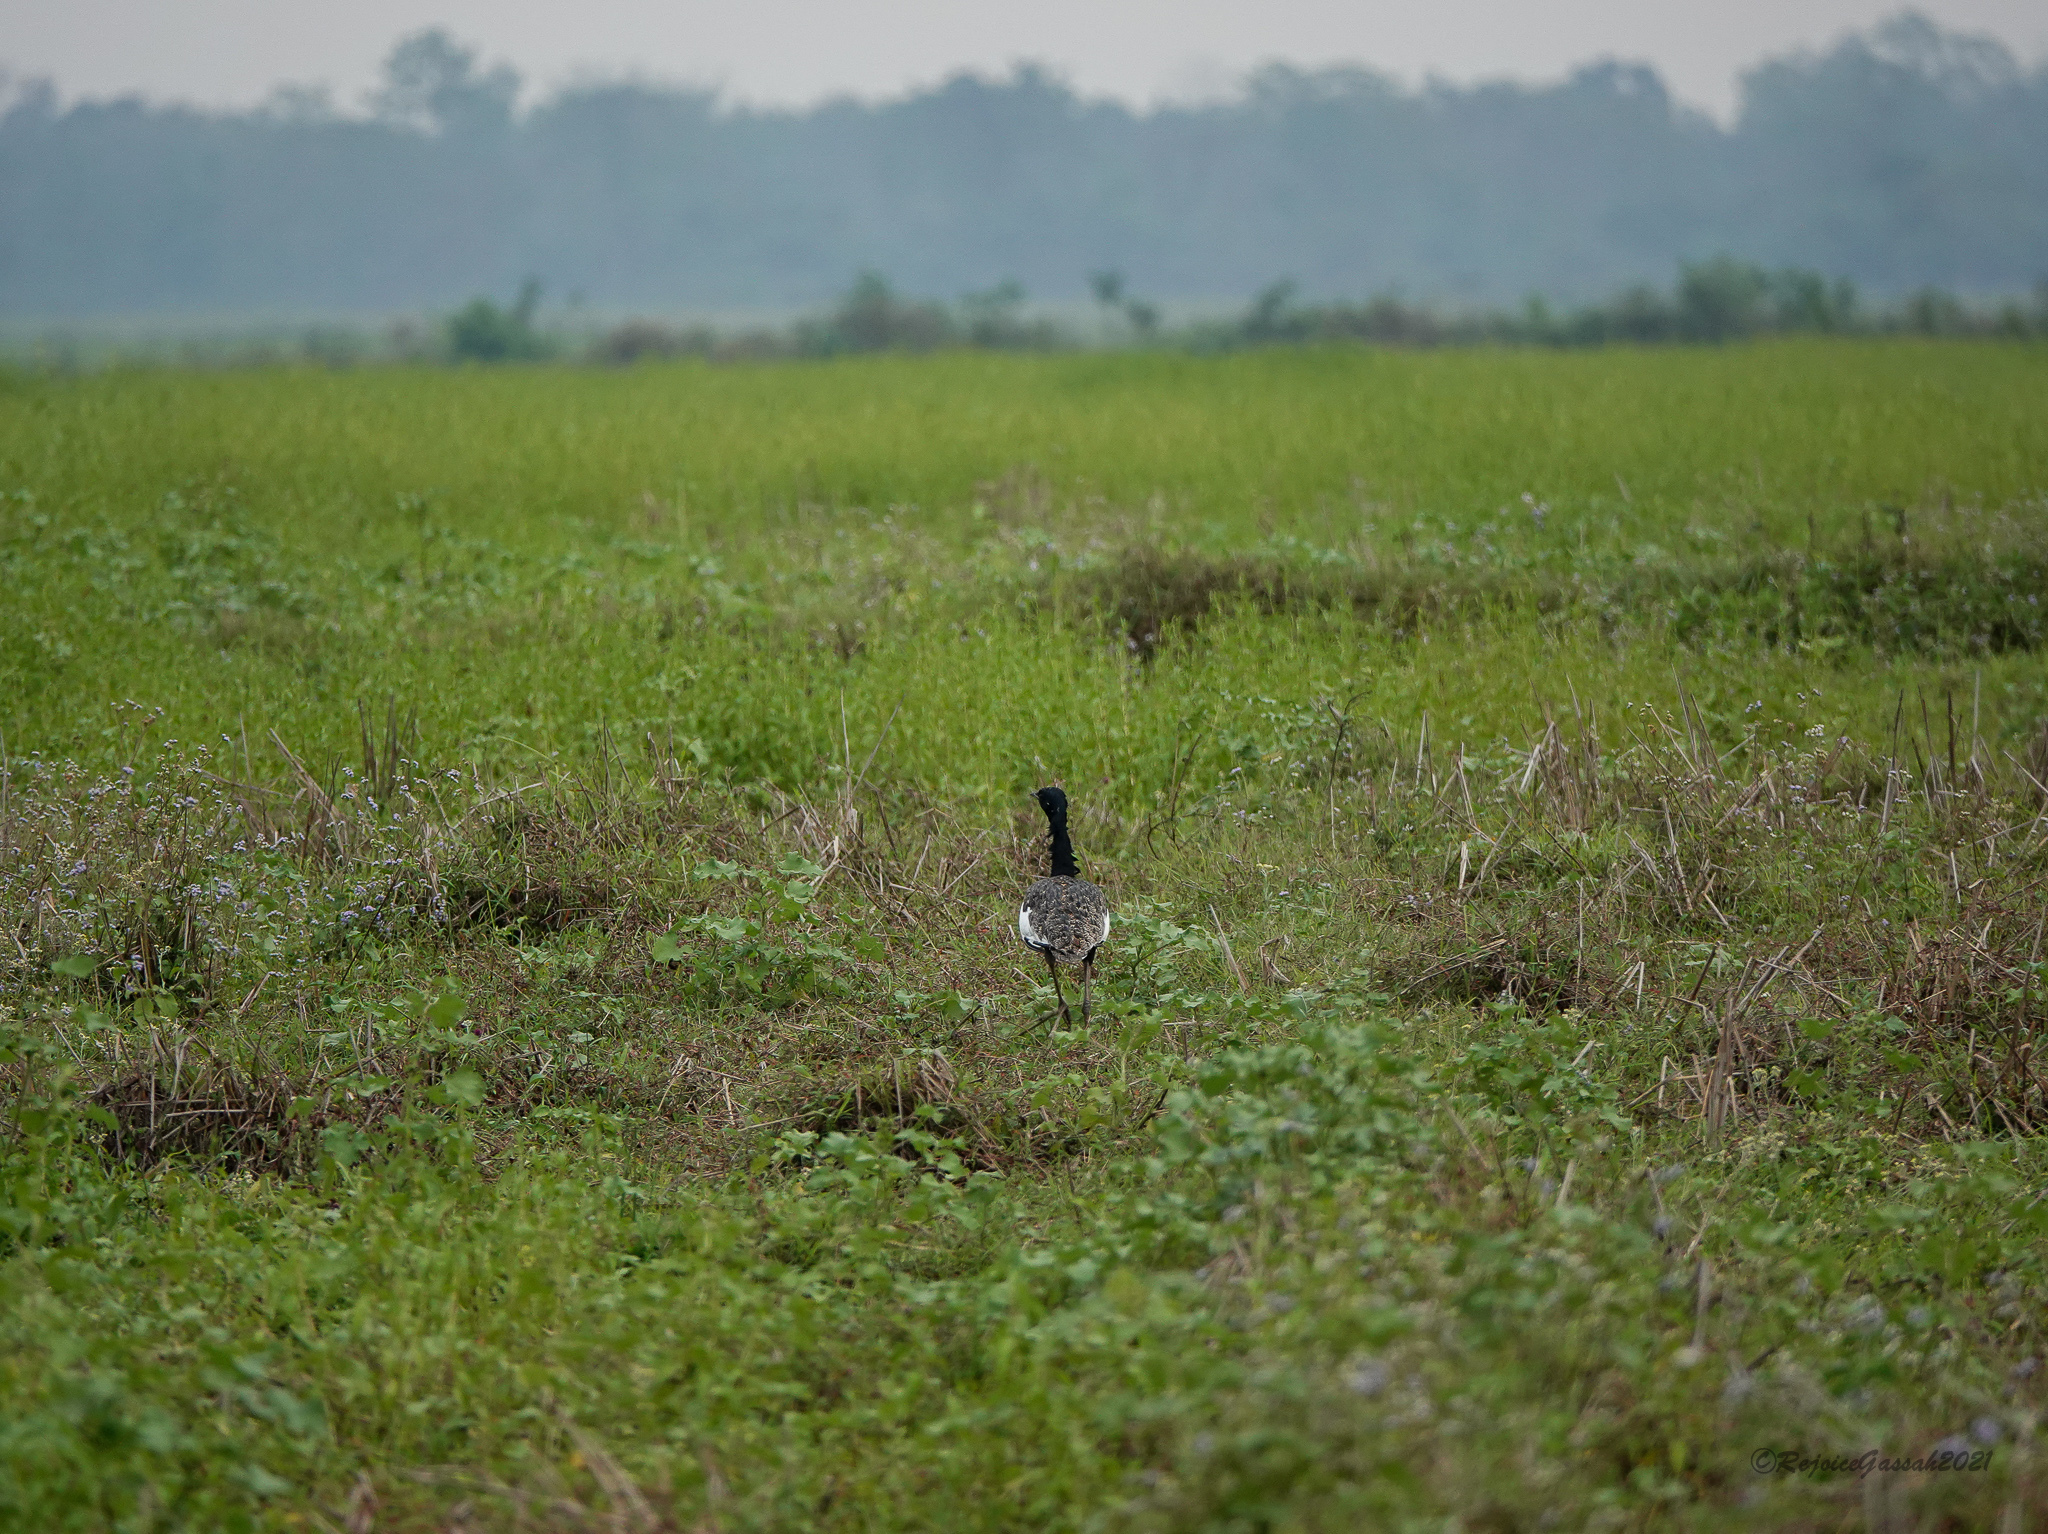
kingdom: Animalia
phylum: Chordata
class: Aves
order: Otidiformes
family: Otididae
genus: Houbaropsis
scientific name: Houbaropsis bengalensis
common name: Bengal florican
